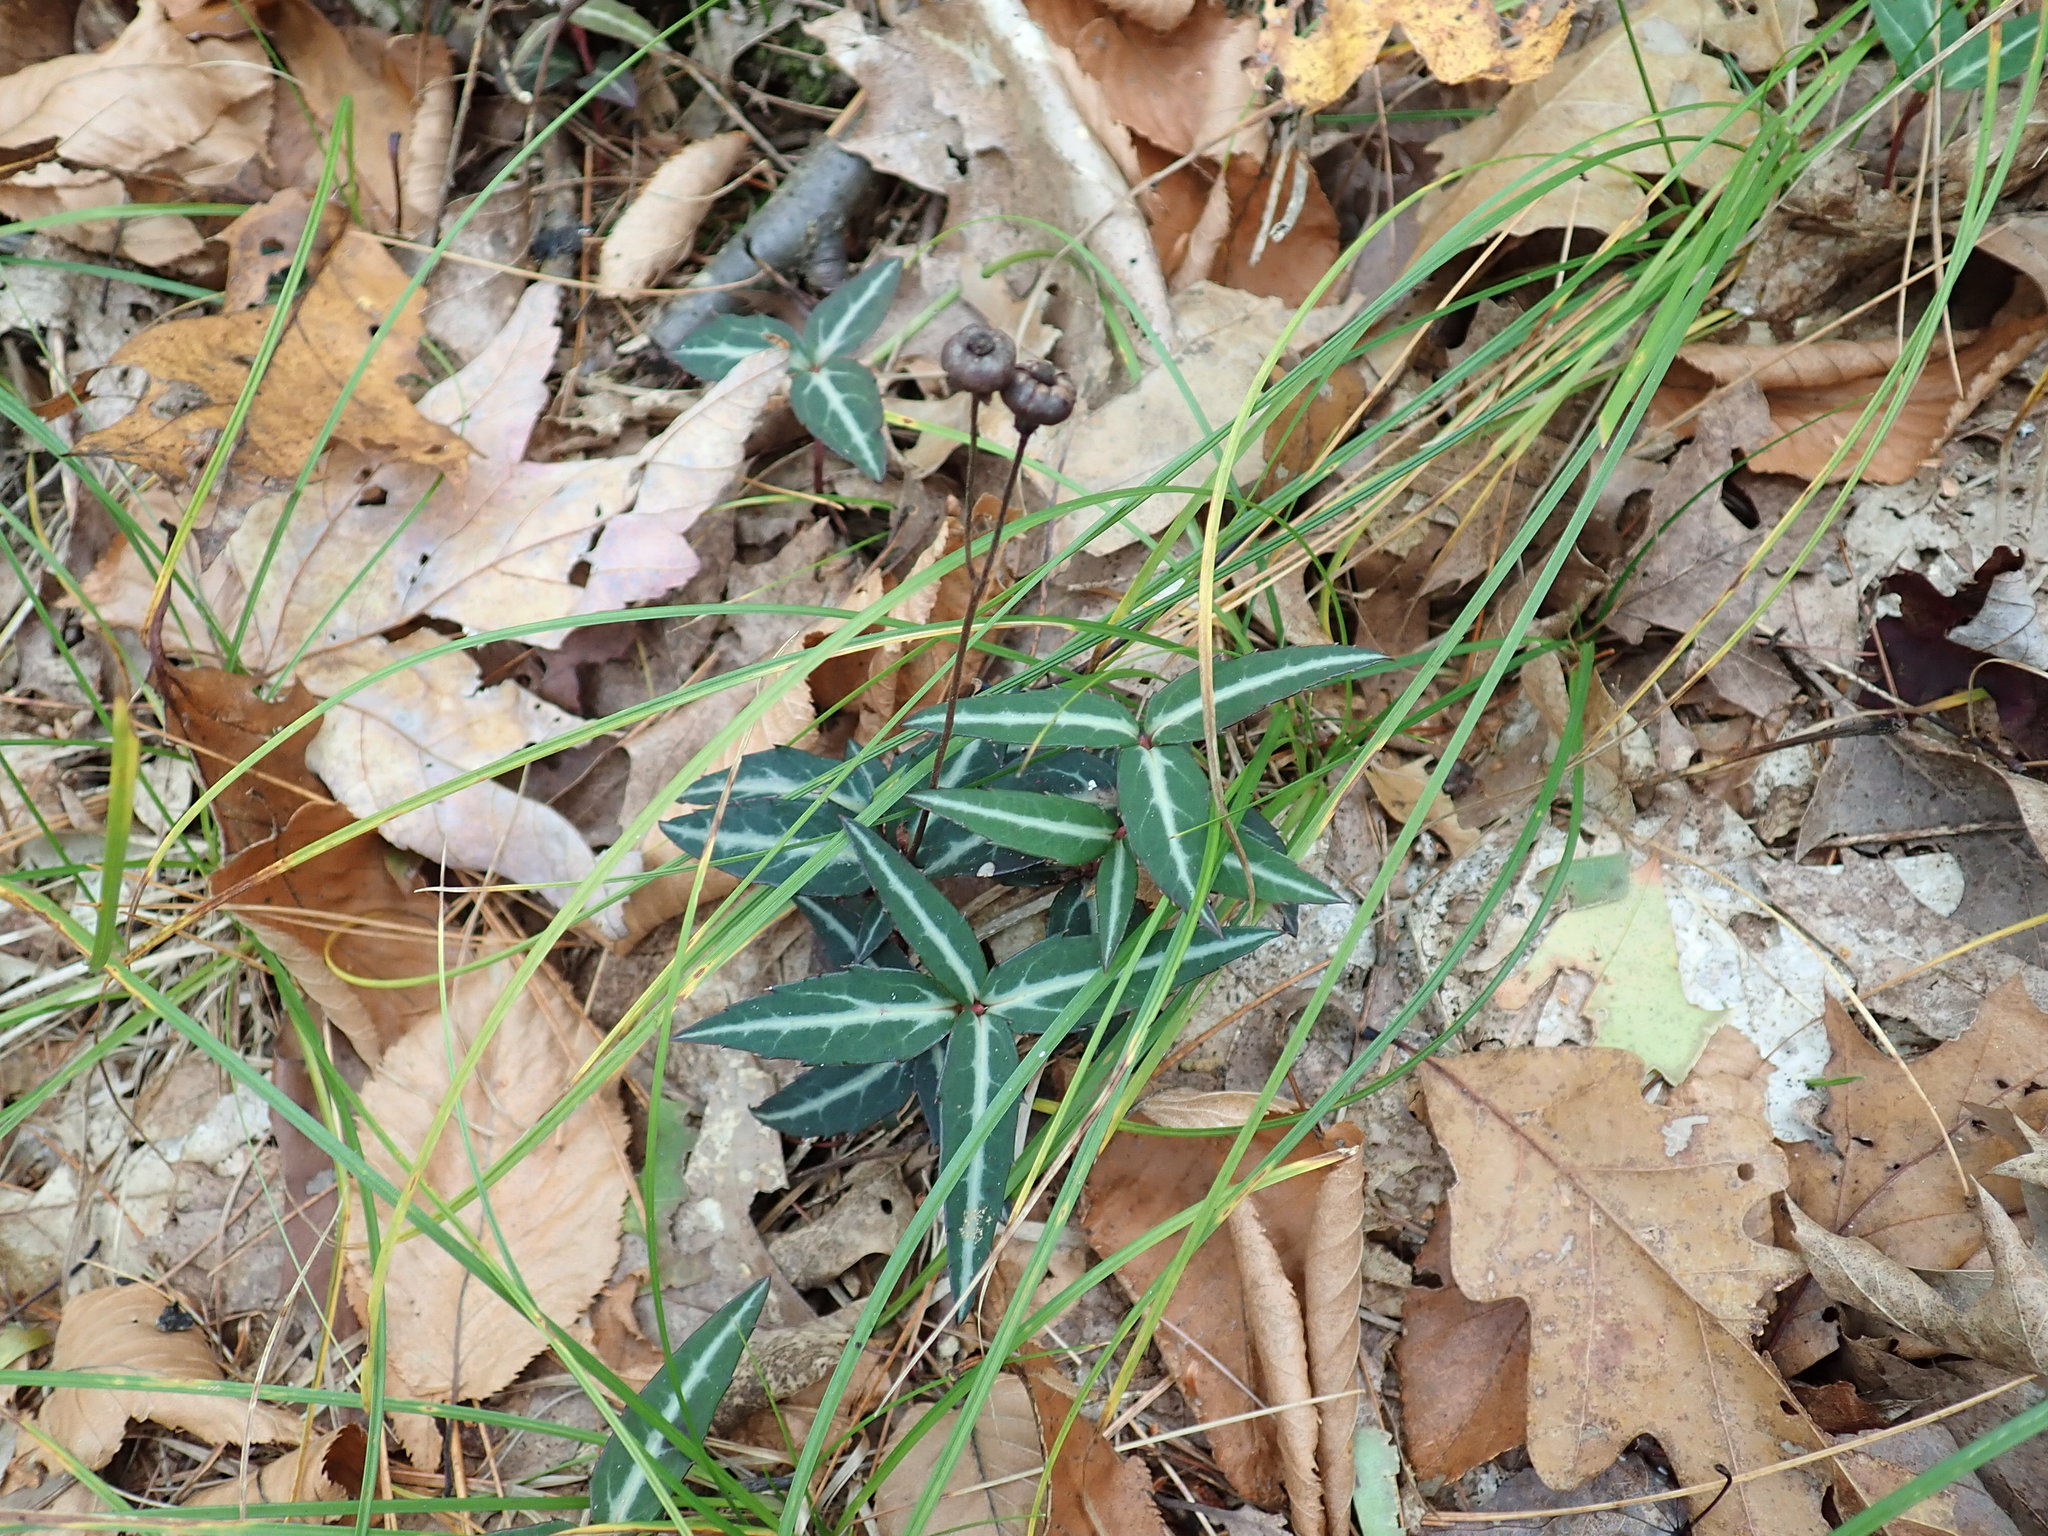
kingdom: Plantae
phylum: Tracheophyta
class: Magnoliopsida
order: Ericales
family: Ericaceae
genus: Chimaphila
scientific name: Chimaphila maculata
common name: Spotted pipsissewa
